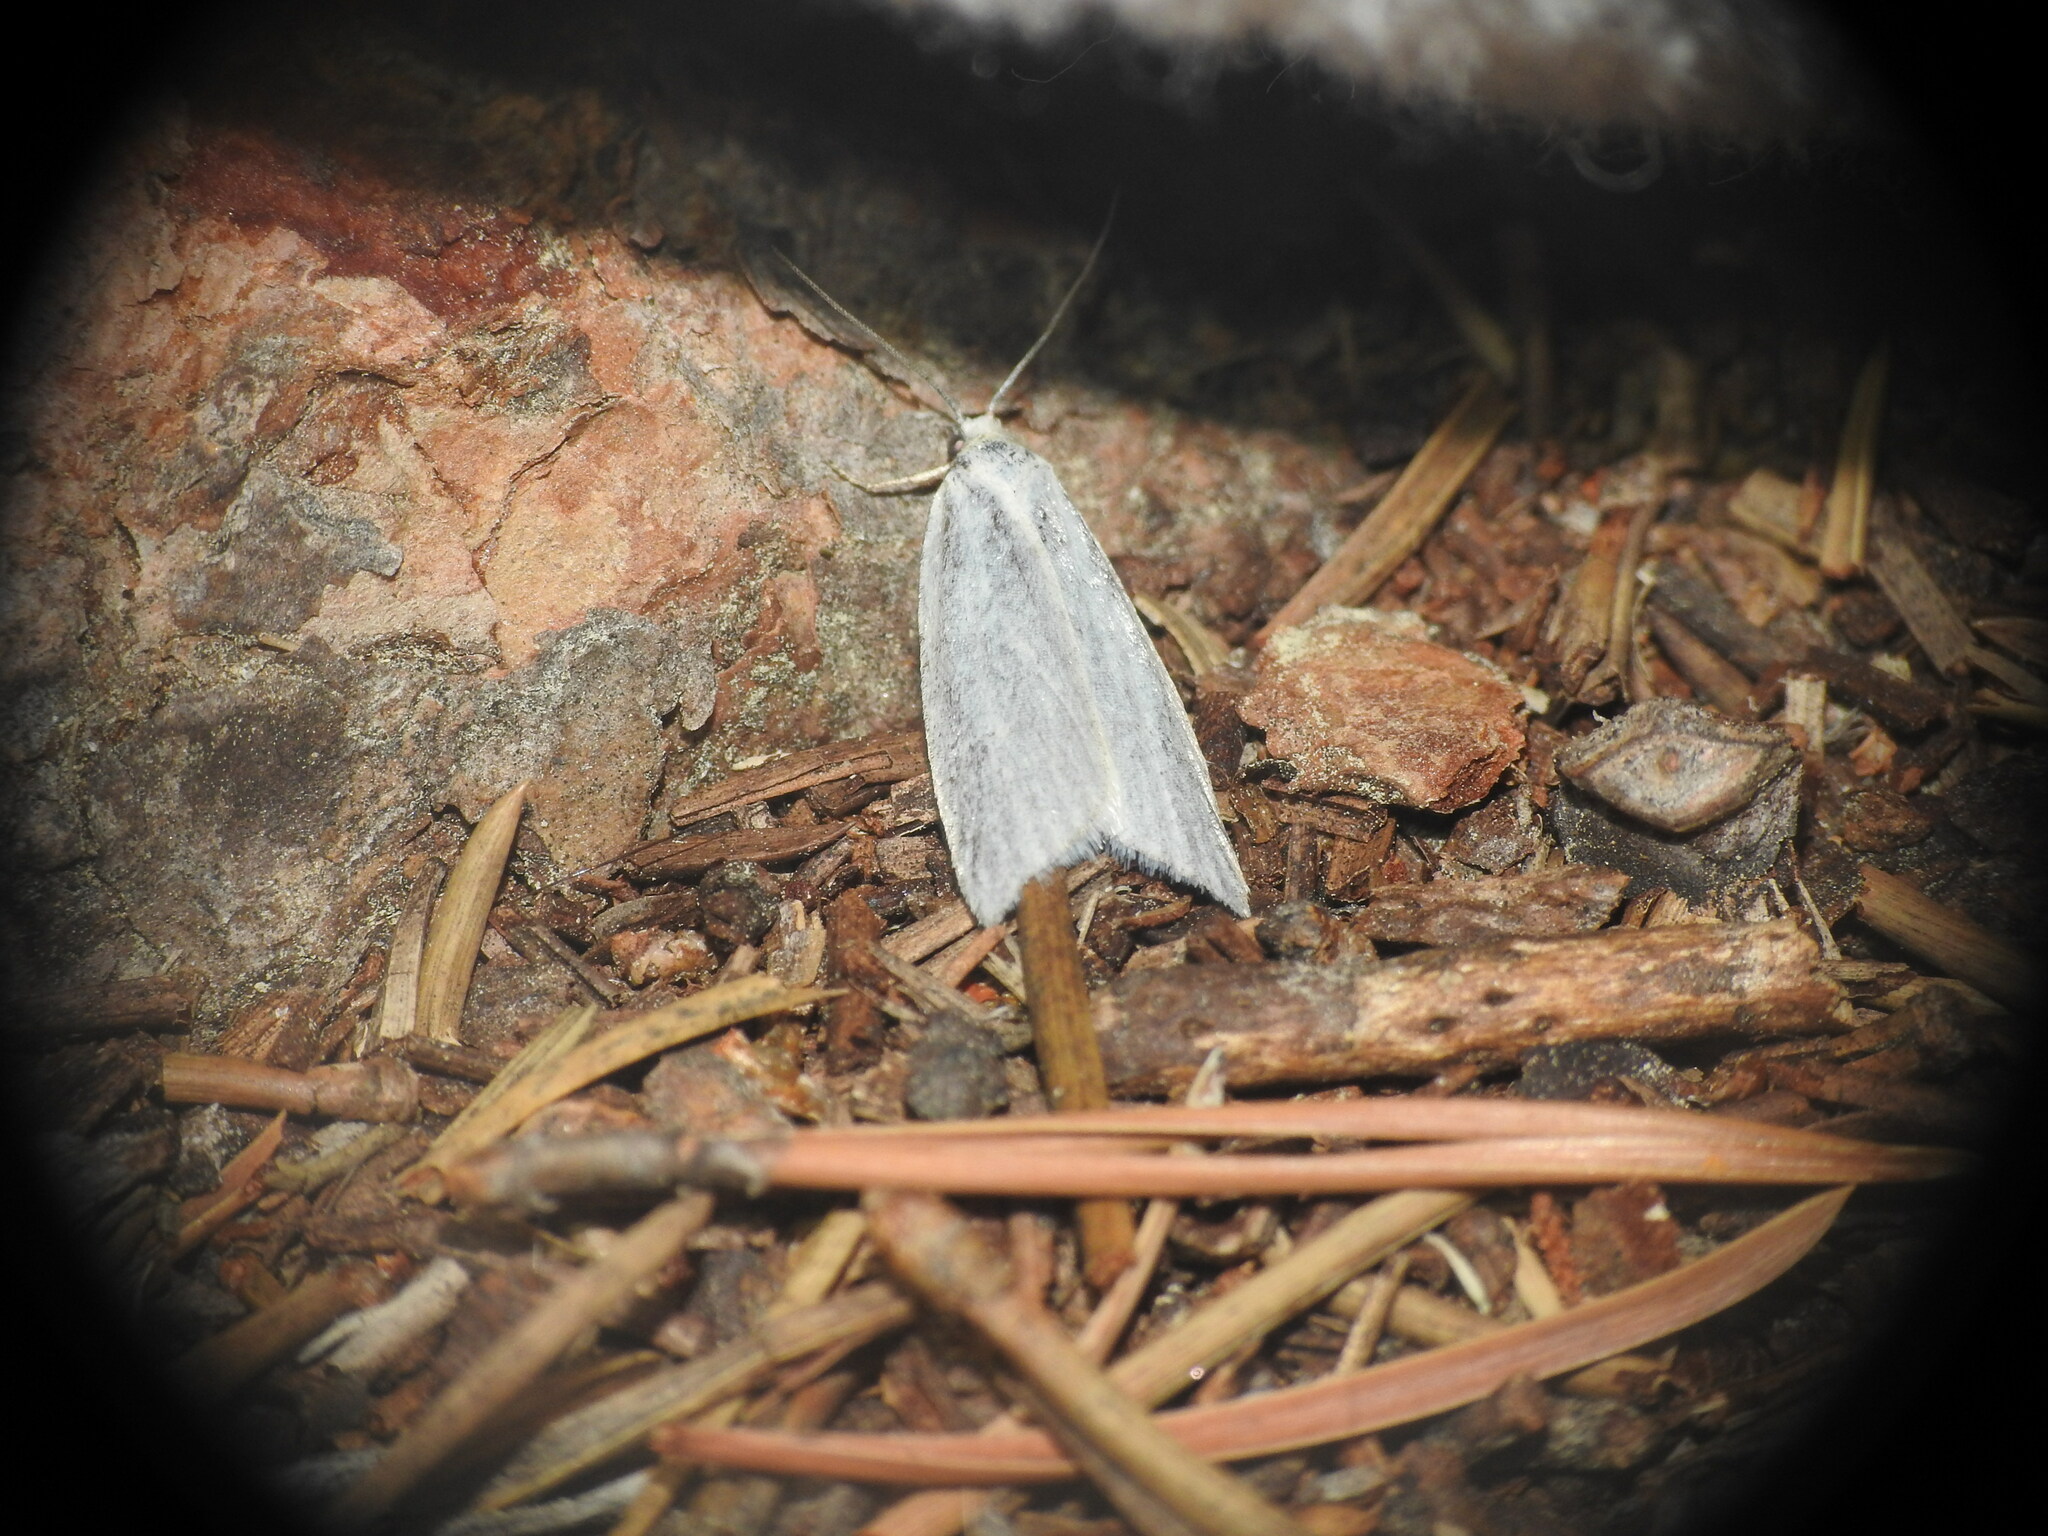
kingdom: Animalia
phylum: Arthropoda
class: Insecta
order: Lepidoptera
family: Tortricidae
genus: Eana
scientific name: Eana argentana
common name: Silver shade
